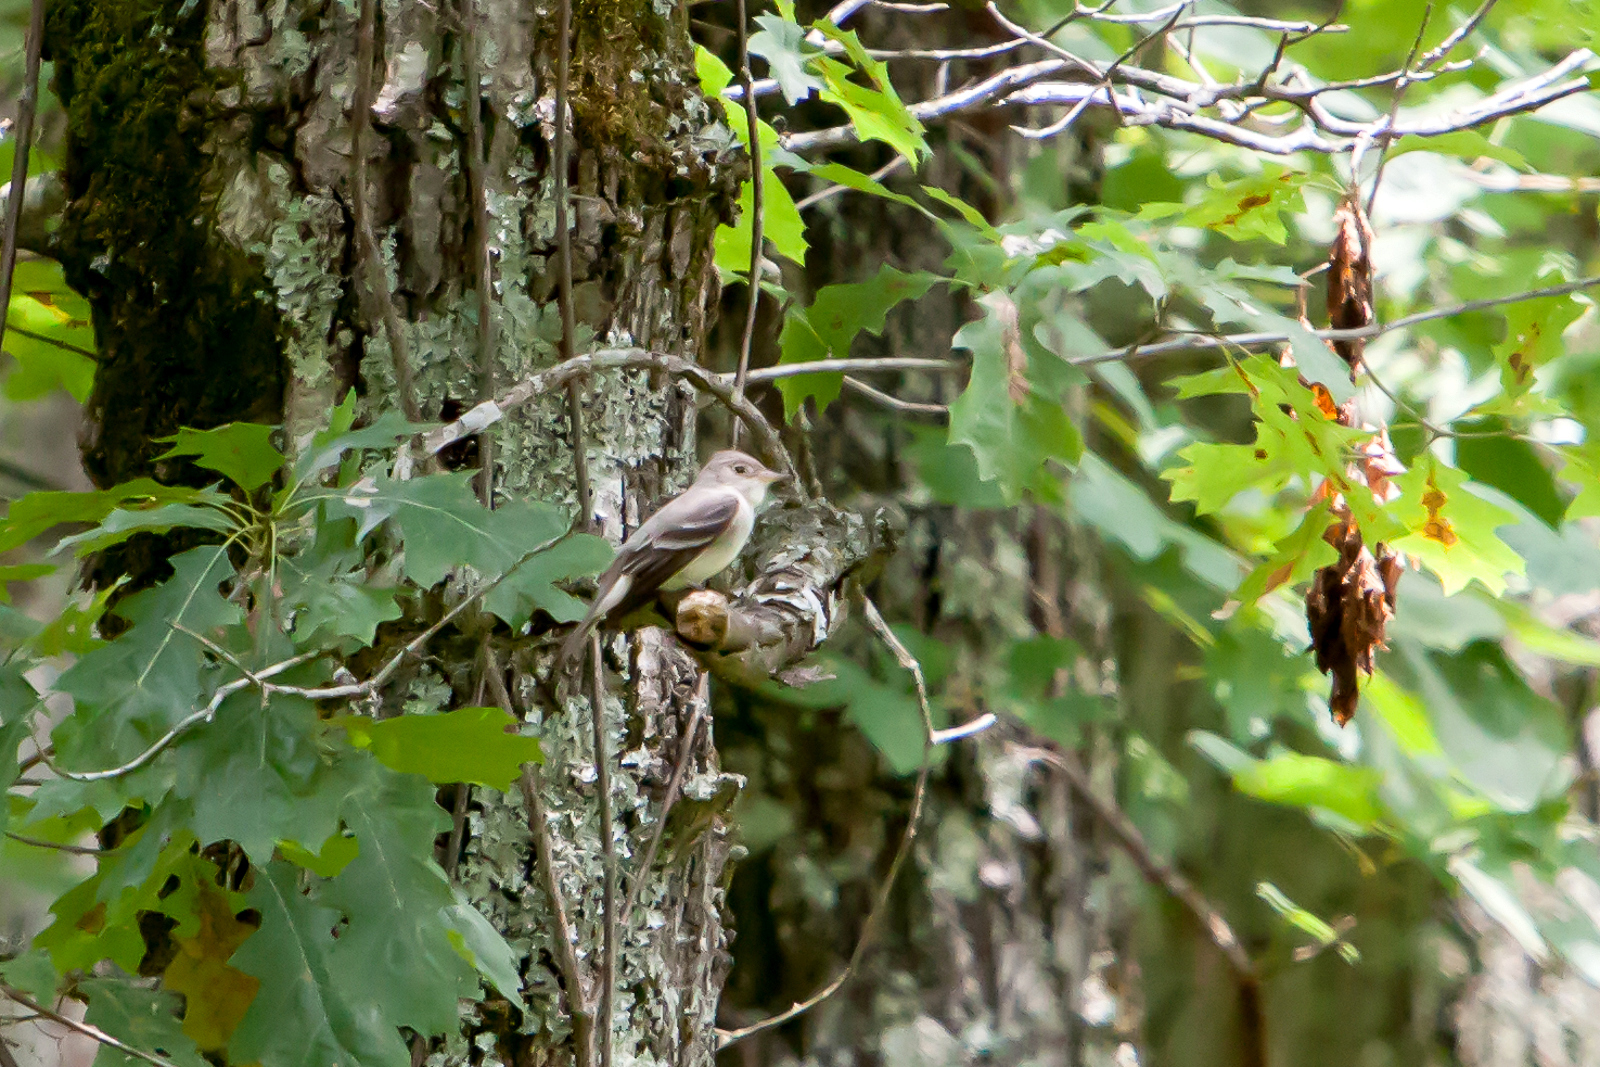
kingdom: Animalia
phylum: Chordata
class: Aves
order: Passeriformes
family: Tyrannidae
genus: Contopus
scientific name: Contopus virens
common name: Eastern wood-pewee
